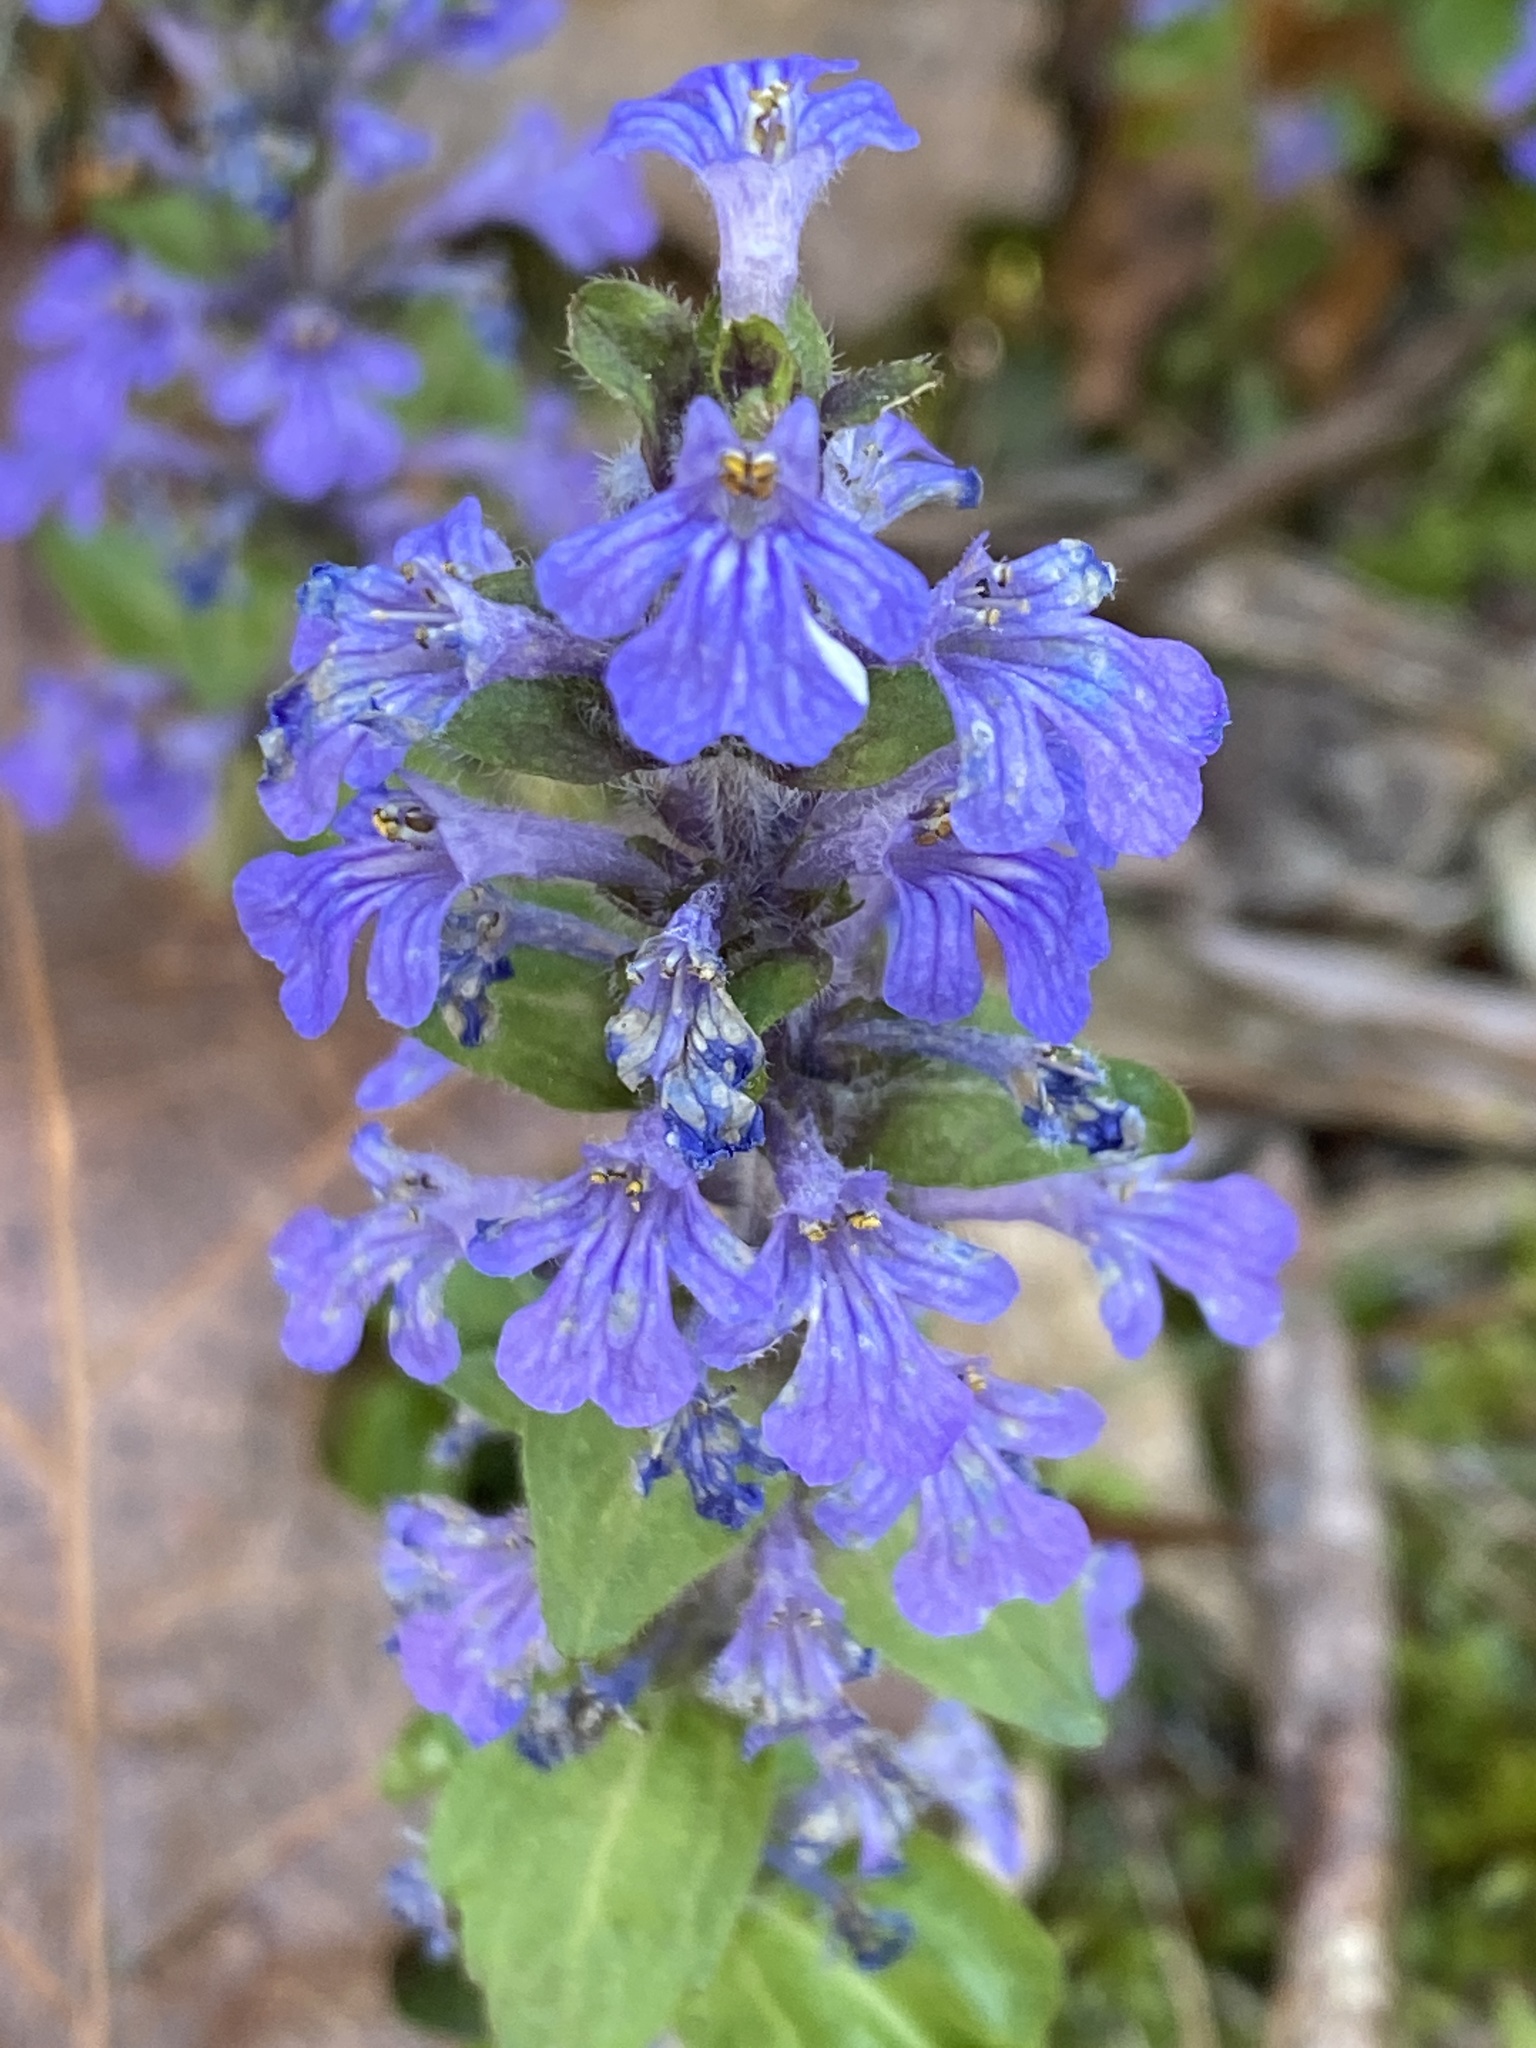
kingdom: Plantae
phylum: Tracheophyta
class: Magnoliopsida
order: Lamiales
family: Lamiaceae
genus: Ajuga
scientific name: Ajuga reptans
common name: Bugle
